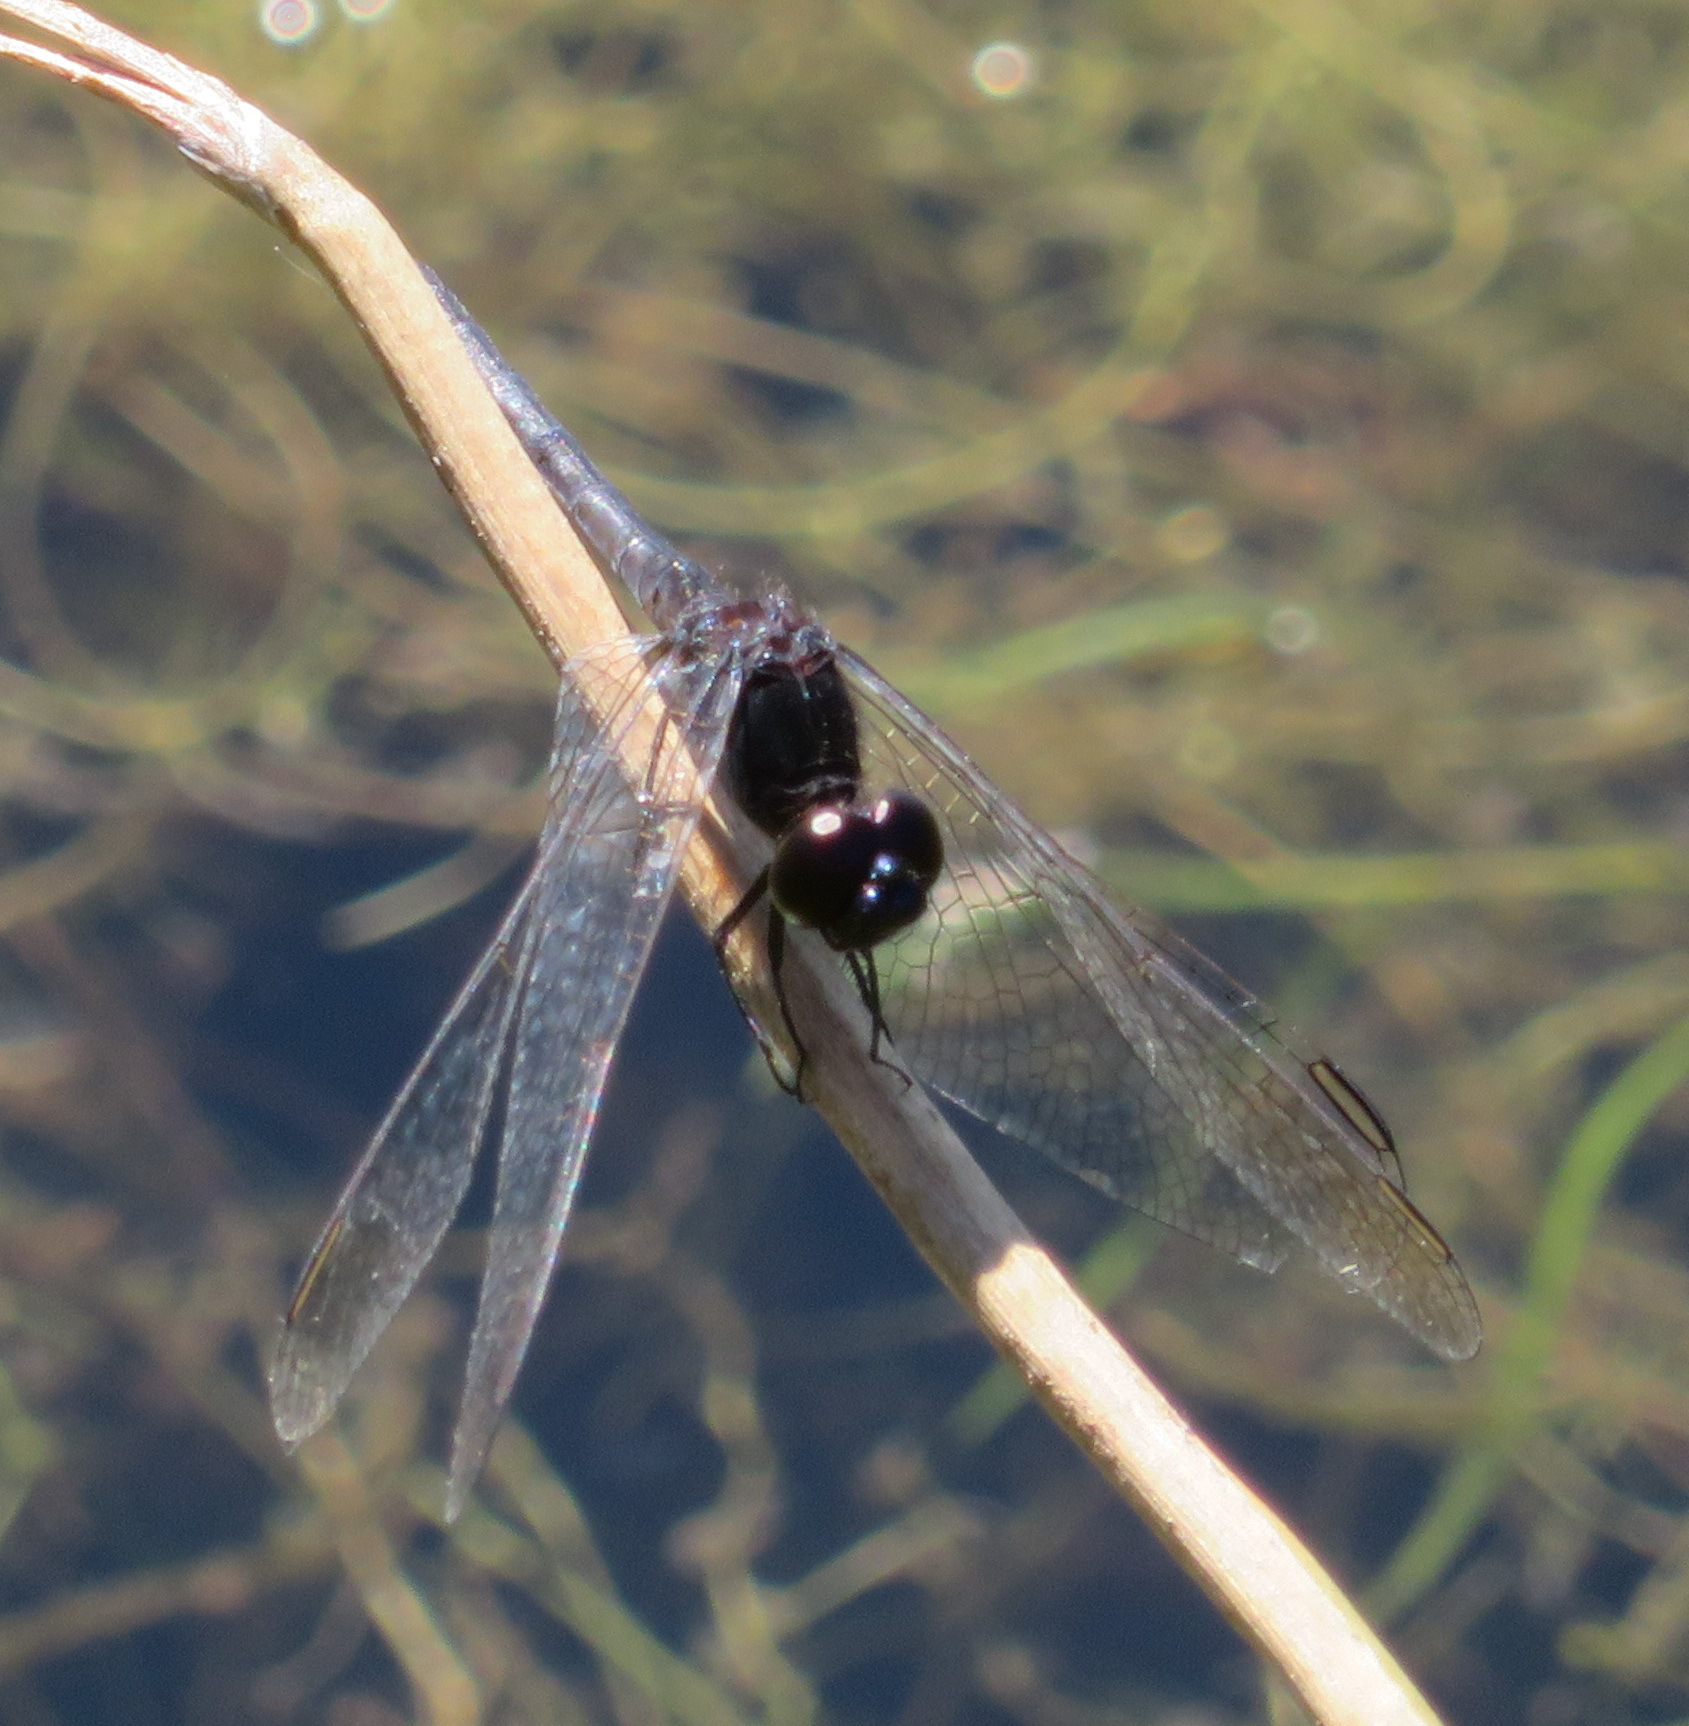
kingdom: Animalia
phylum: Arthropoda
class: Insecta
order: Odonata
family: Libellulidae
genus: Diplacodes
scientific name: Diplacodes lefebvrii
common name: Black percher
